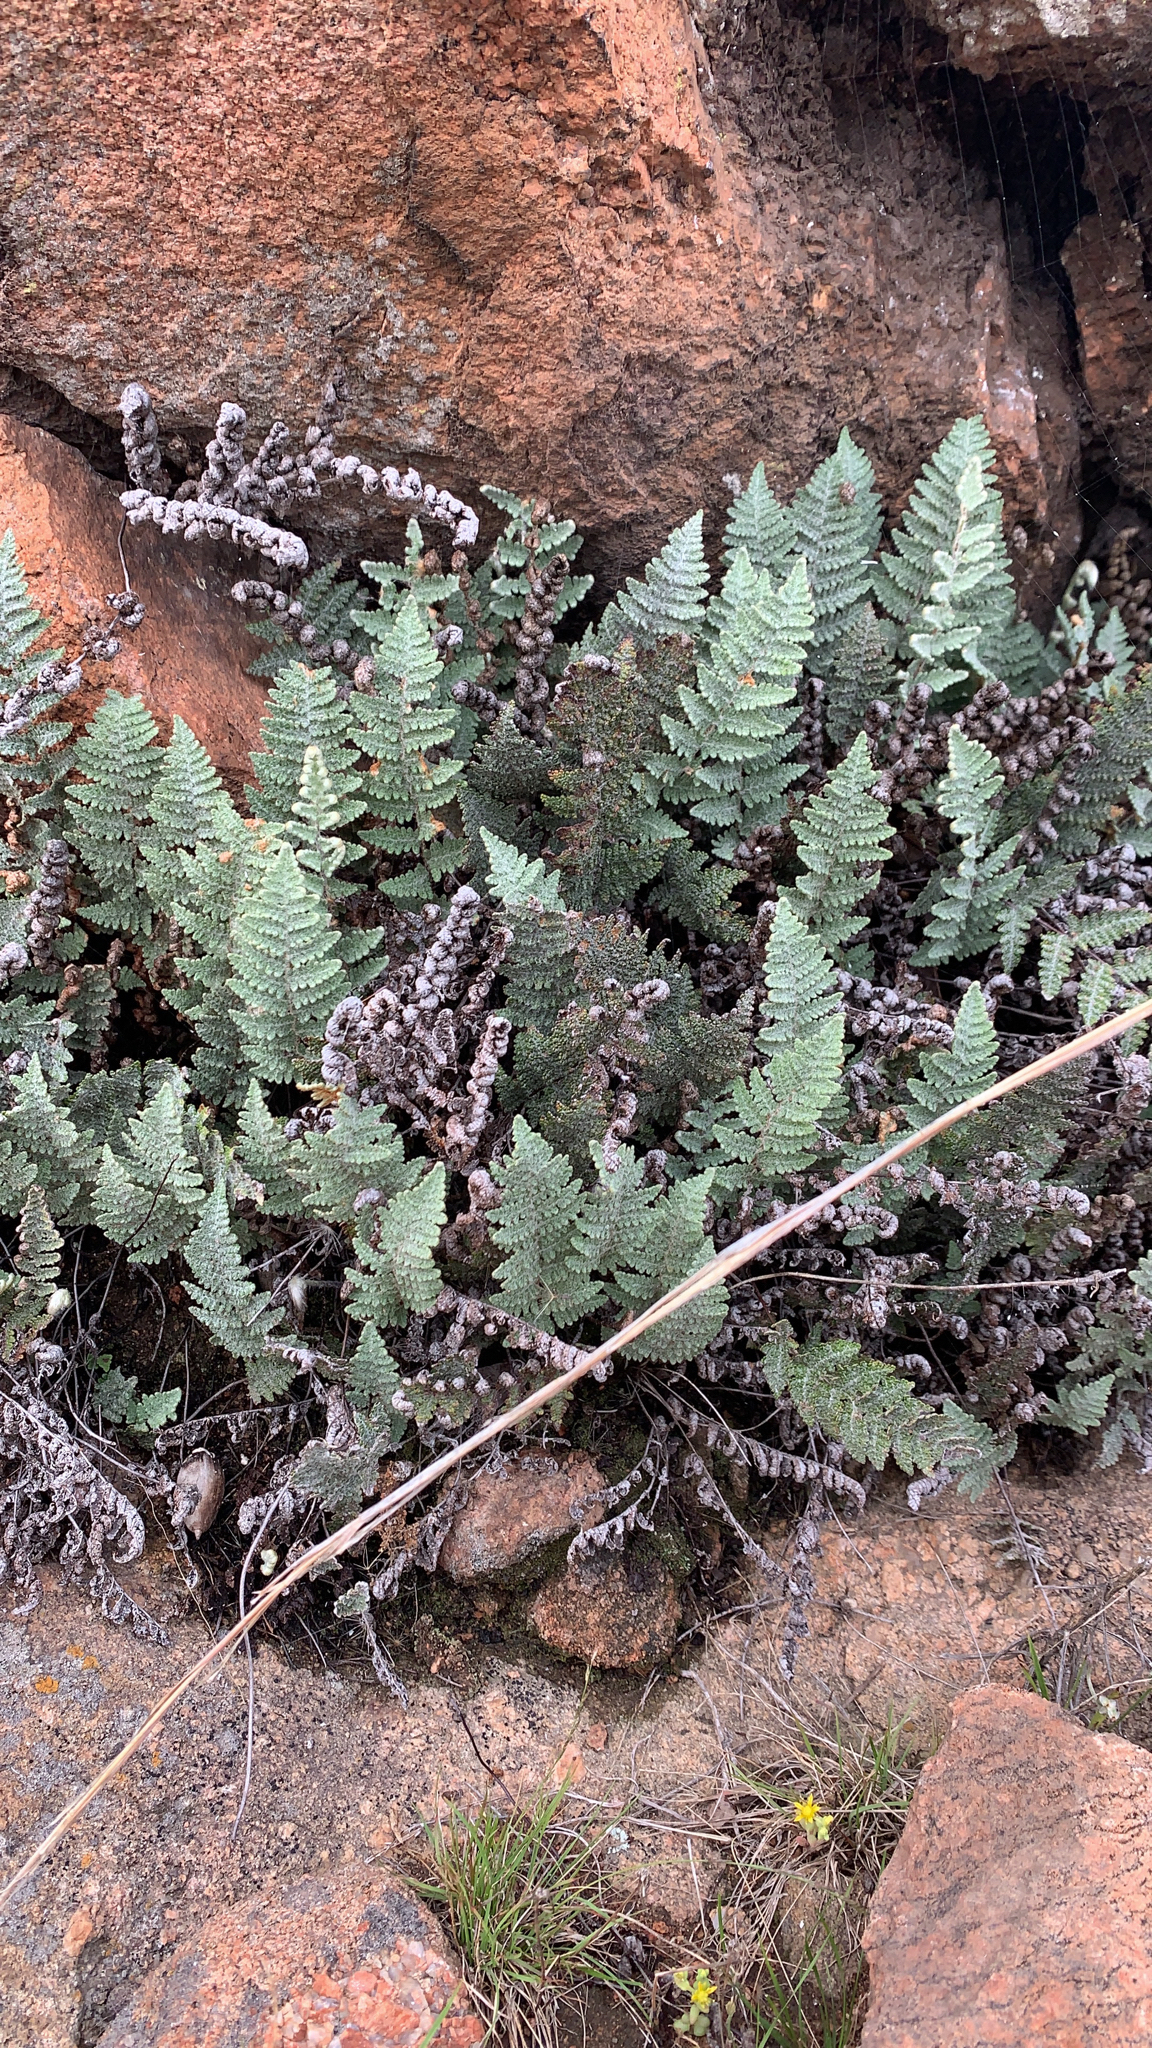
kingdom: Plantae
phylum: Tracheophyta
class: Polypodiopsida
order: Polypodiales
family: Pteridaceae
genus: Myriopteris
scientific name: Myriopteris lindheimeri
